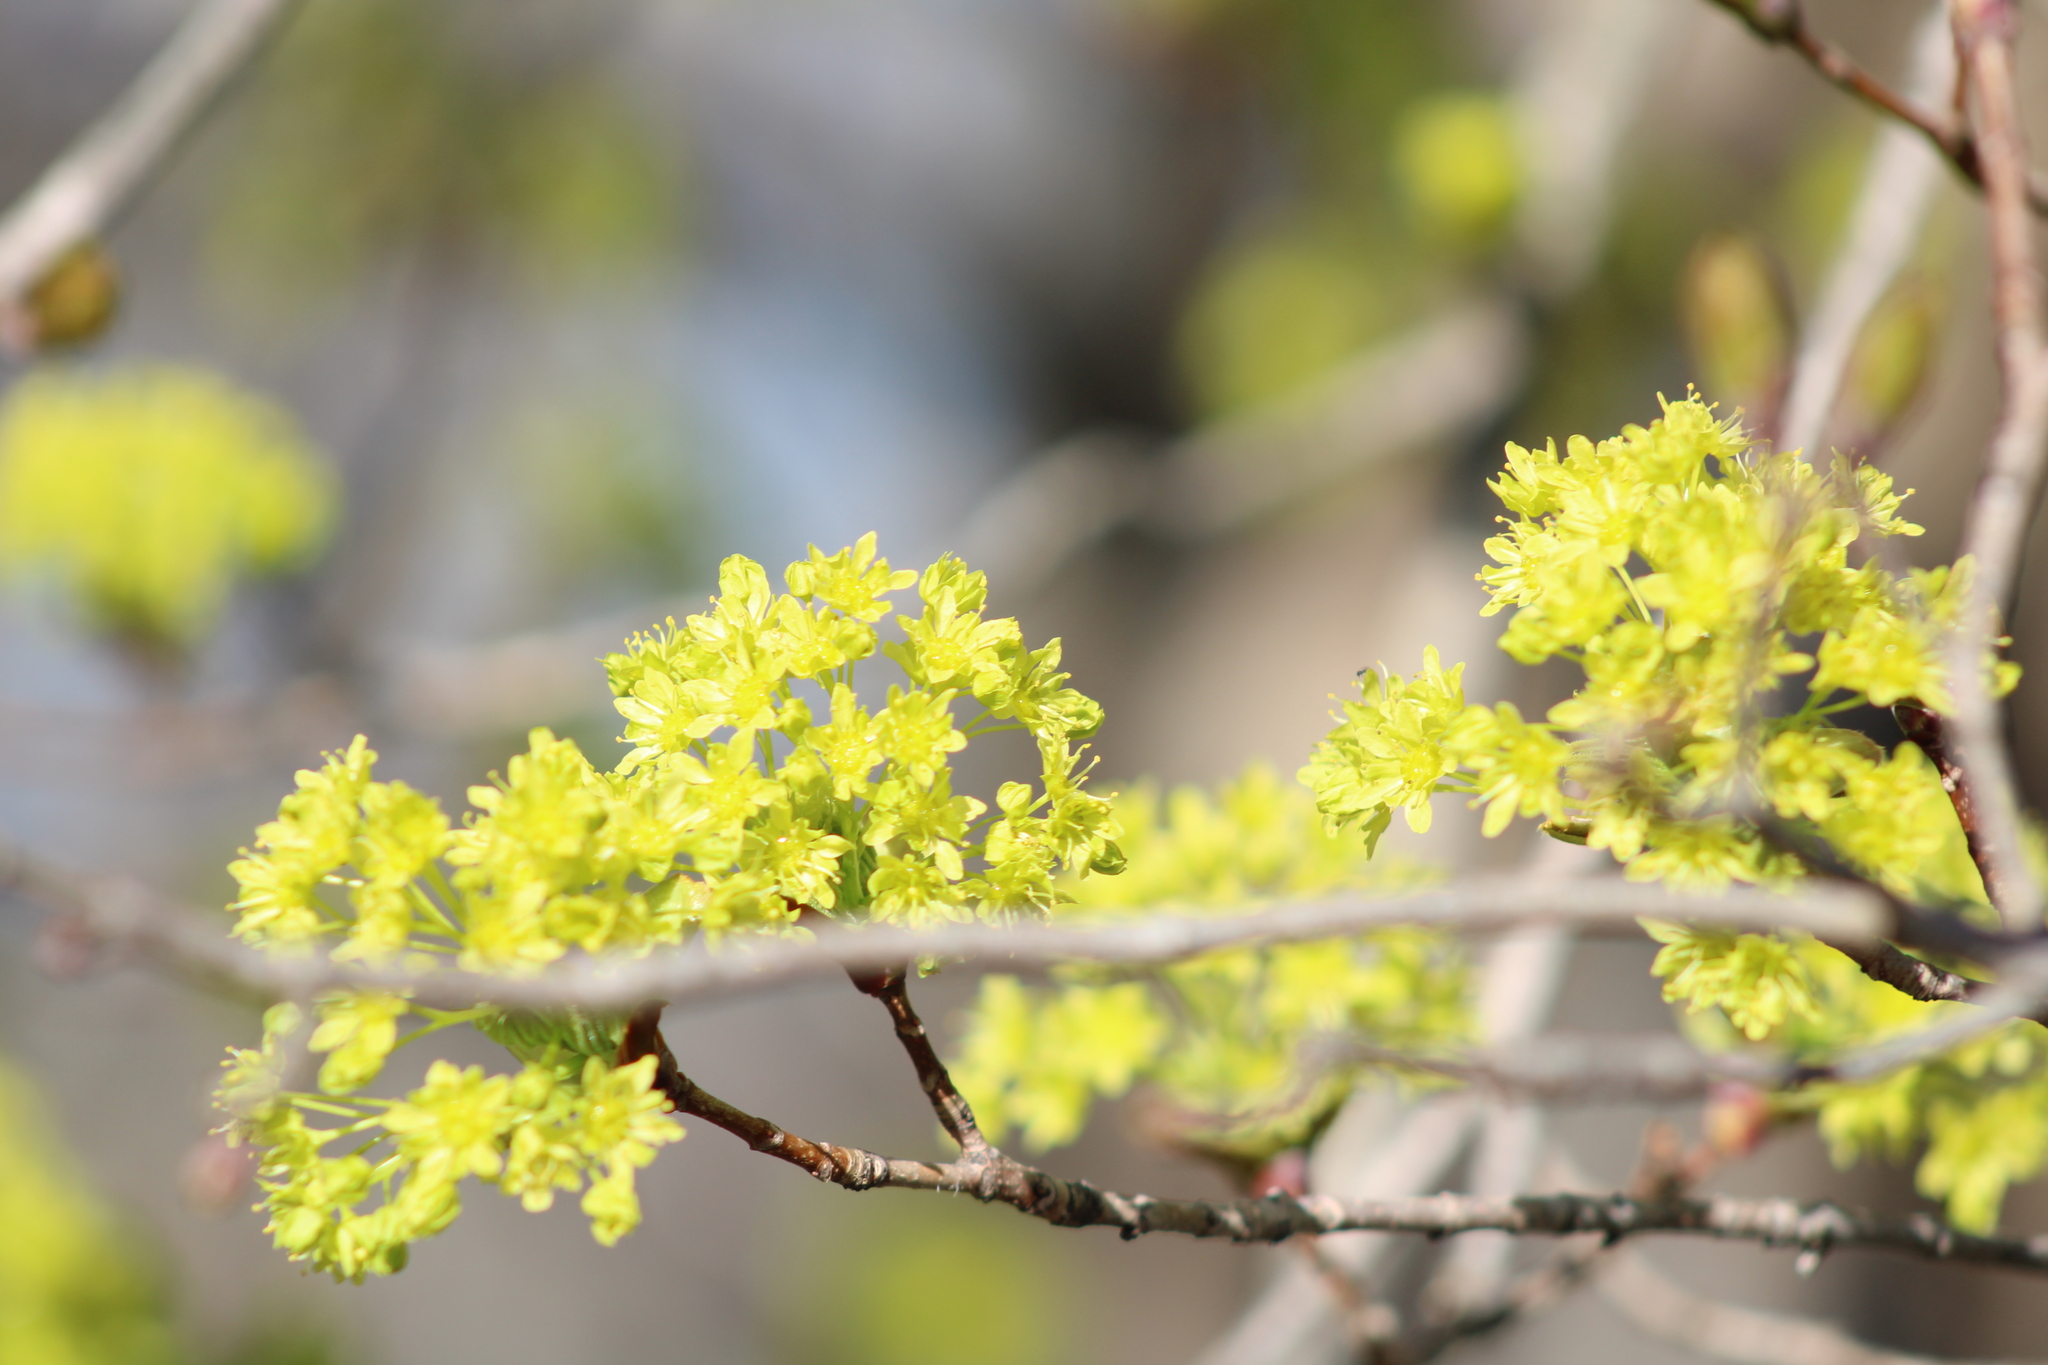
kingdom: Plantae
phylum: Tracheophyta
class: Magnoliopsida
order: Sapindales
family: Sapindaceae
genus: Acer
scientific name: Acer platanoides
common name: Norway maple
